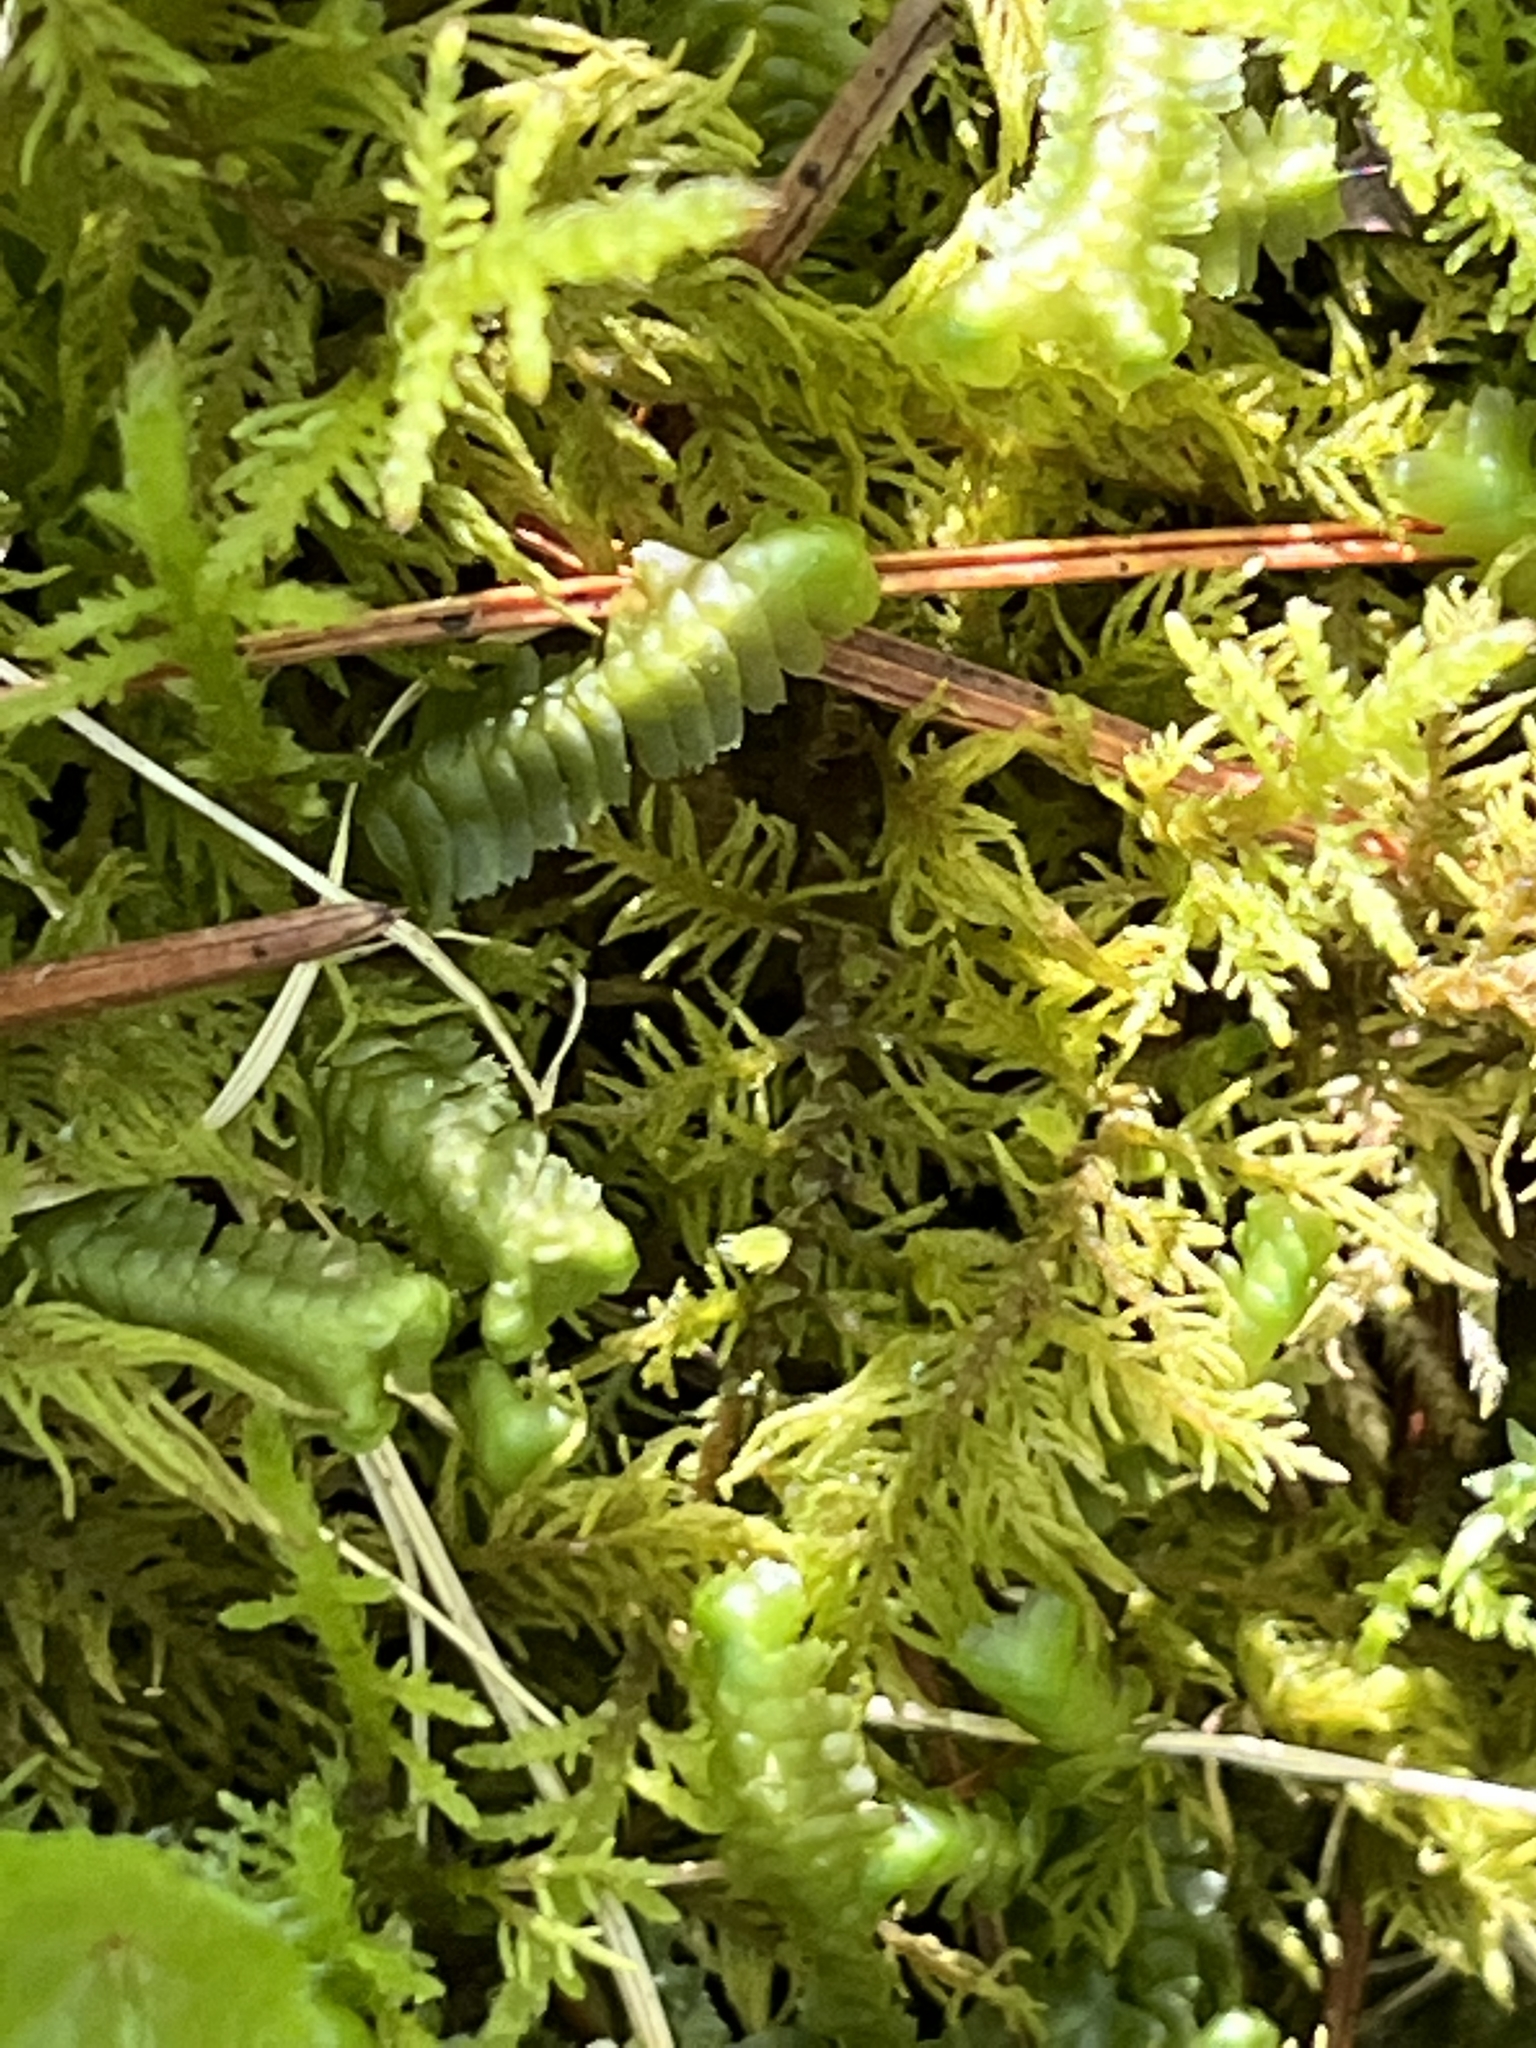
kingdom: Plantae
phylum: Bryophyta
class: Bryopsida
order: Hypnales
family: Thuidiaceae
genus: Thuidium
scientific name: Thuidium delicatulum
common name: Delicate fern moss
